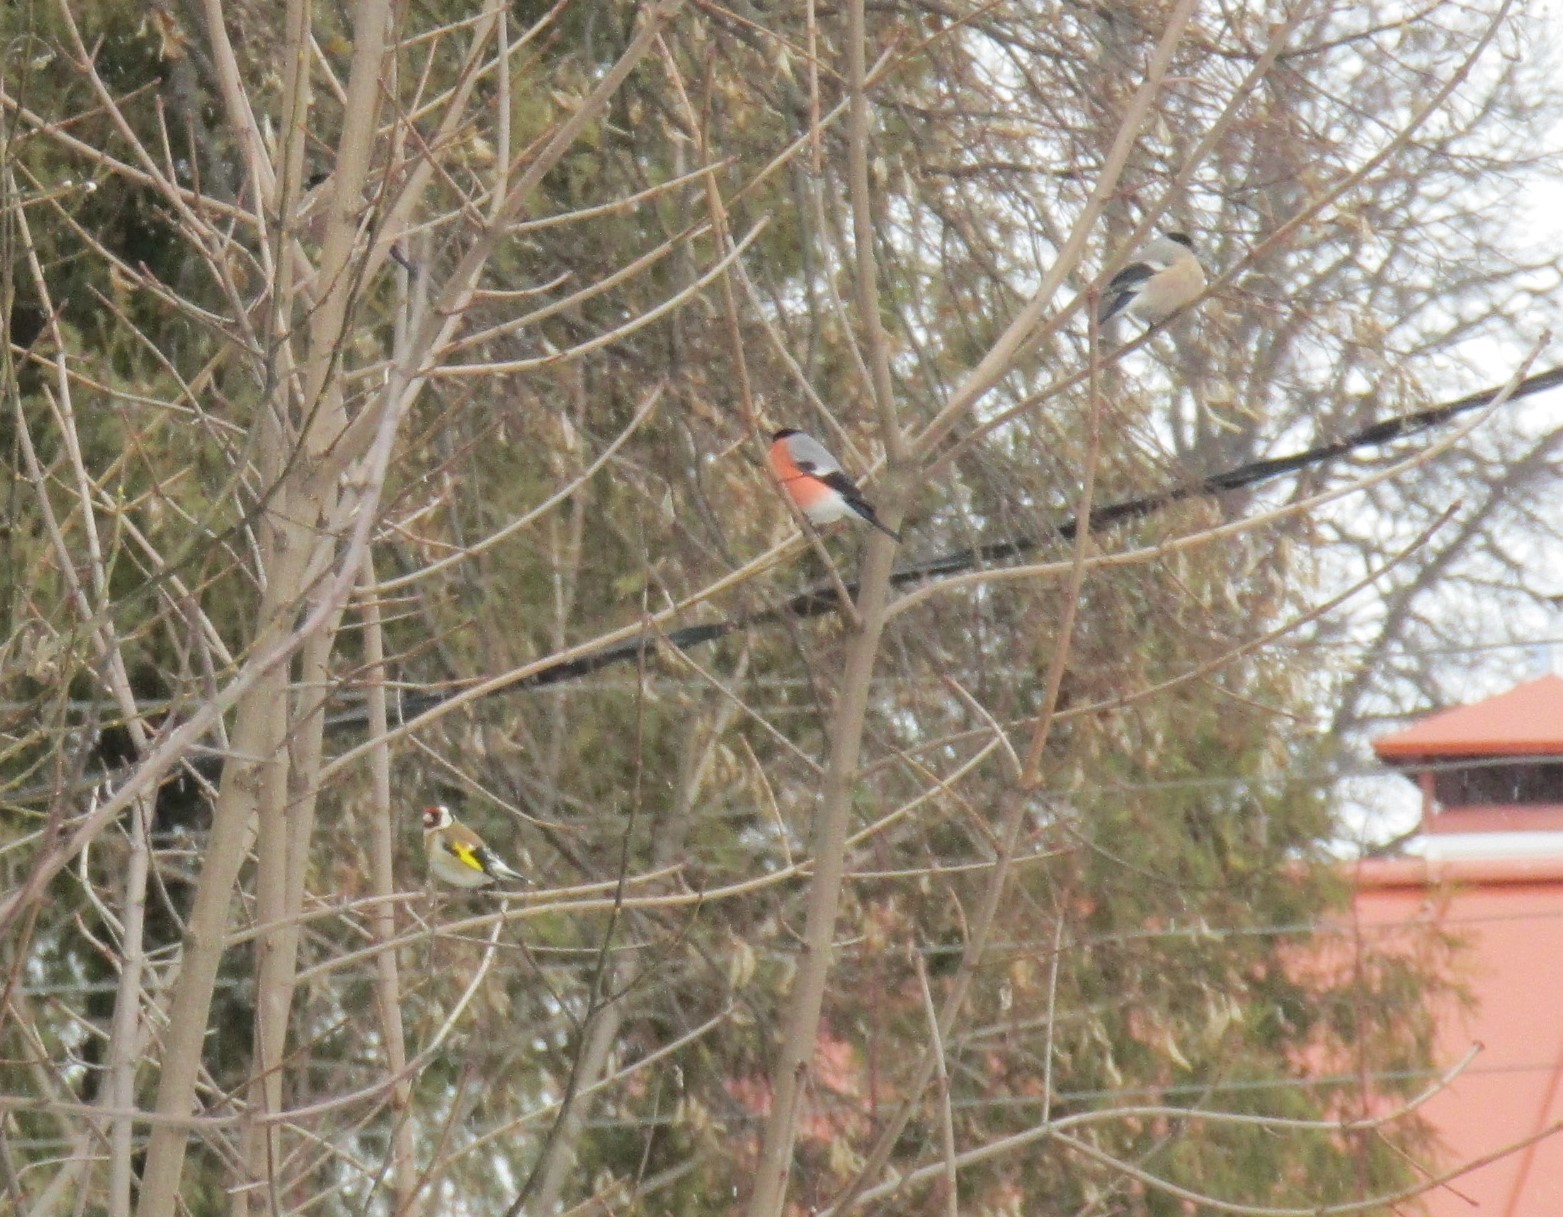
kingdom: Animalia
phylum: Chordata
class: Aves
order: Passeriformes
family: Fringillidae
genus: Carduelis
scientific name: Carduelis carduelis
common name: European goldfinch
